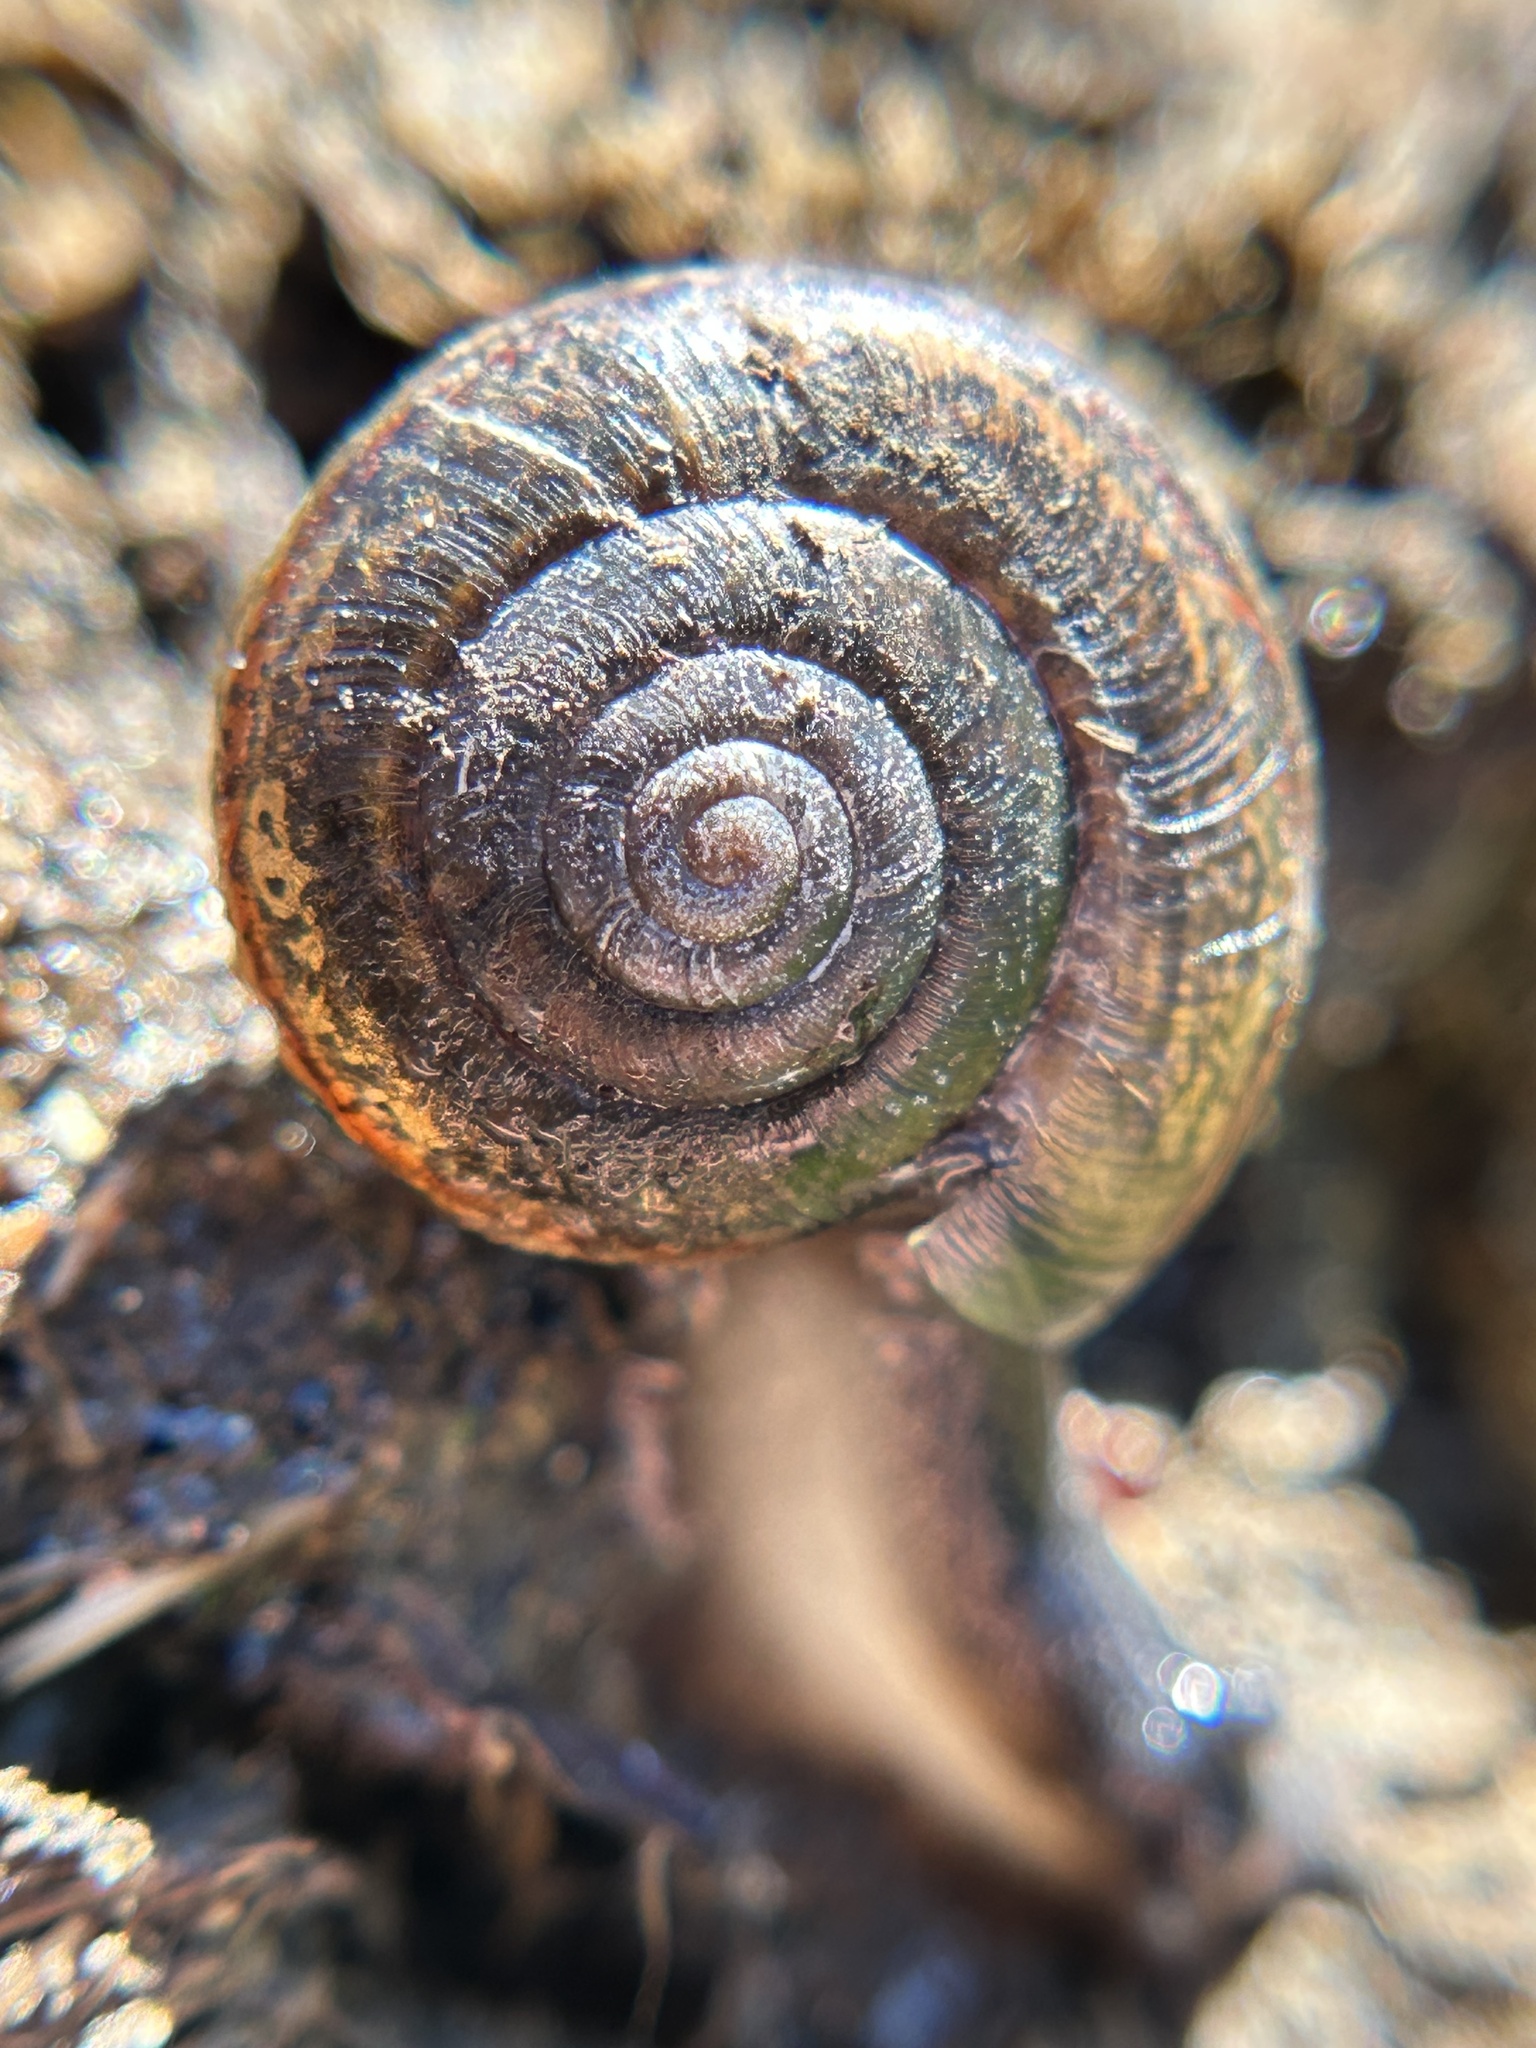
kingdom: Animalia
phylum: Mollusca
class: Gastropoda
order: Stylommatophora
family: Xanthonychidae
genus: Helminthoglypta
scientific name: Helminthoglypta umbilicata
